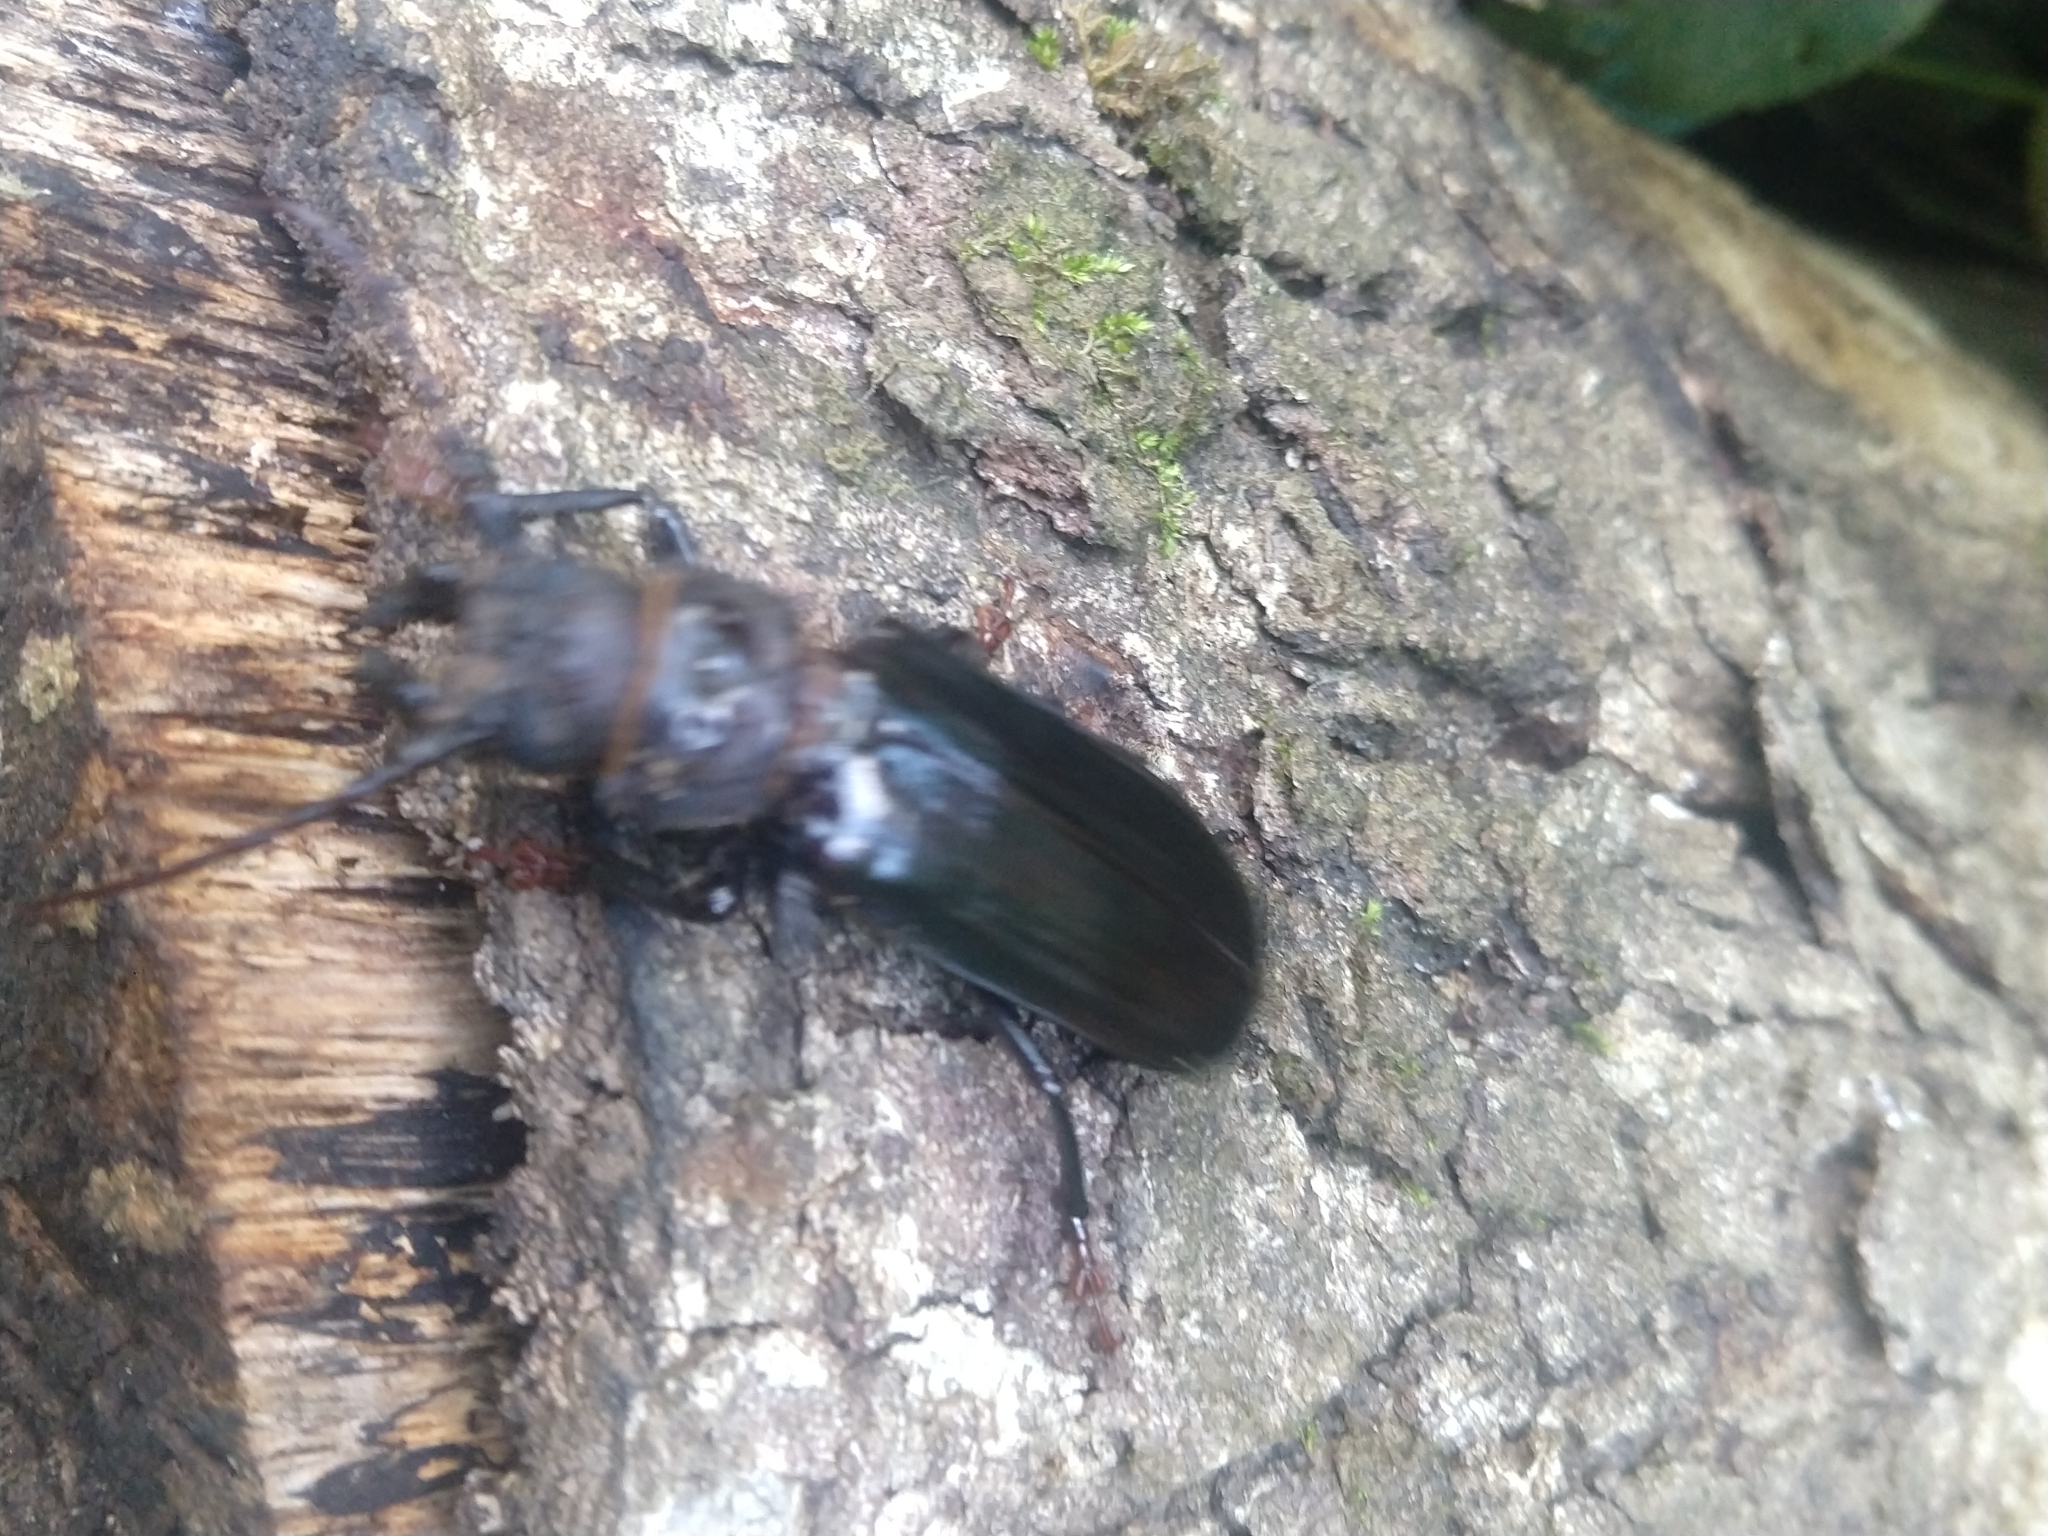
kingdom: Animalia
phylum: Arthropoda
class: Insecta
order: Coleoptera
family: Cerambycidae
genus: Aplagiognathus
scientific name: Aplagiognathus hybostoma
